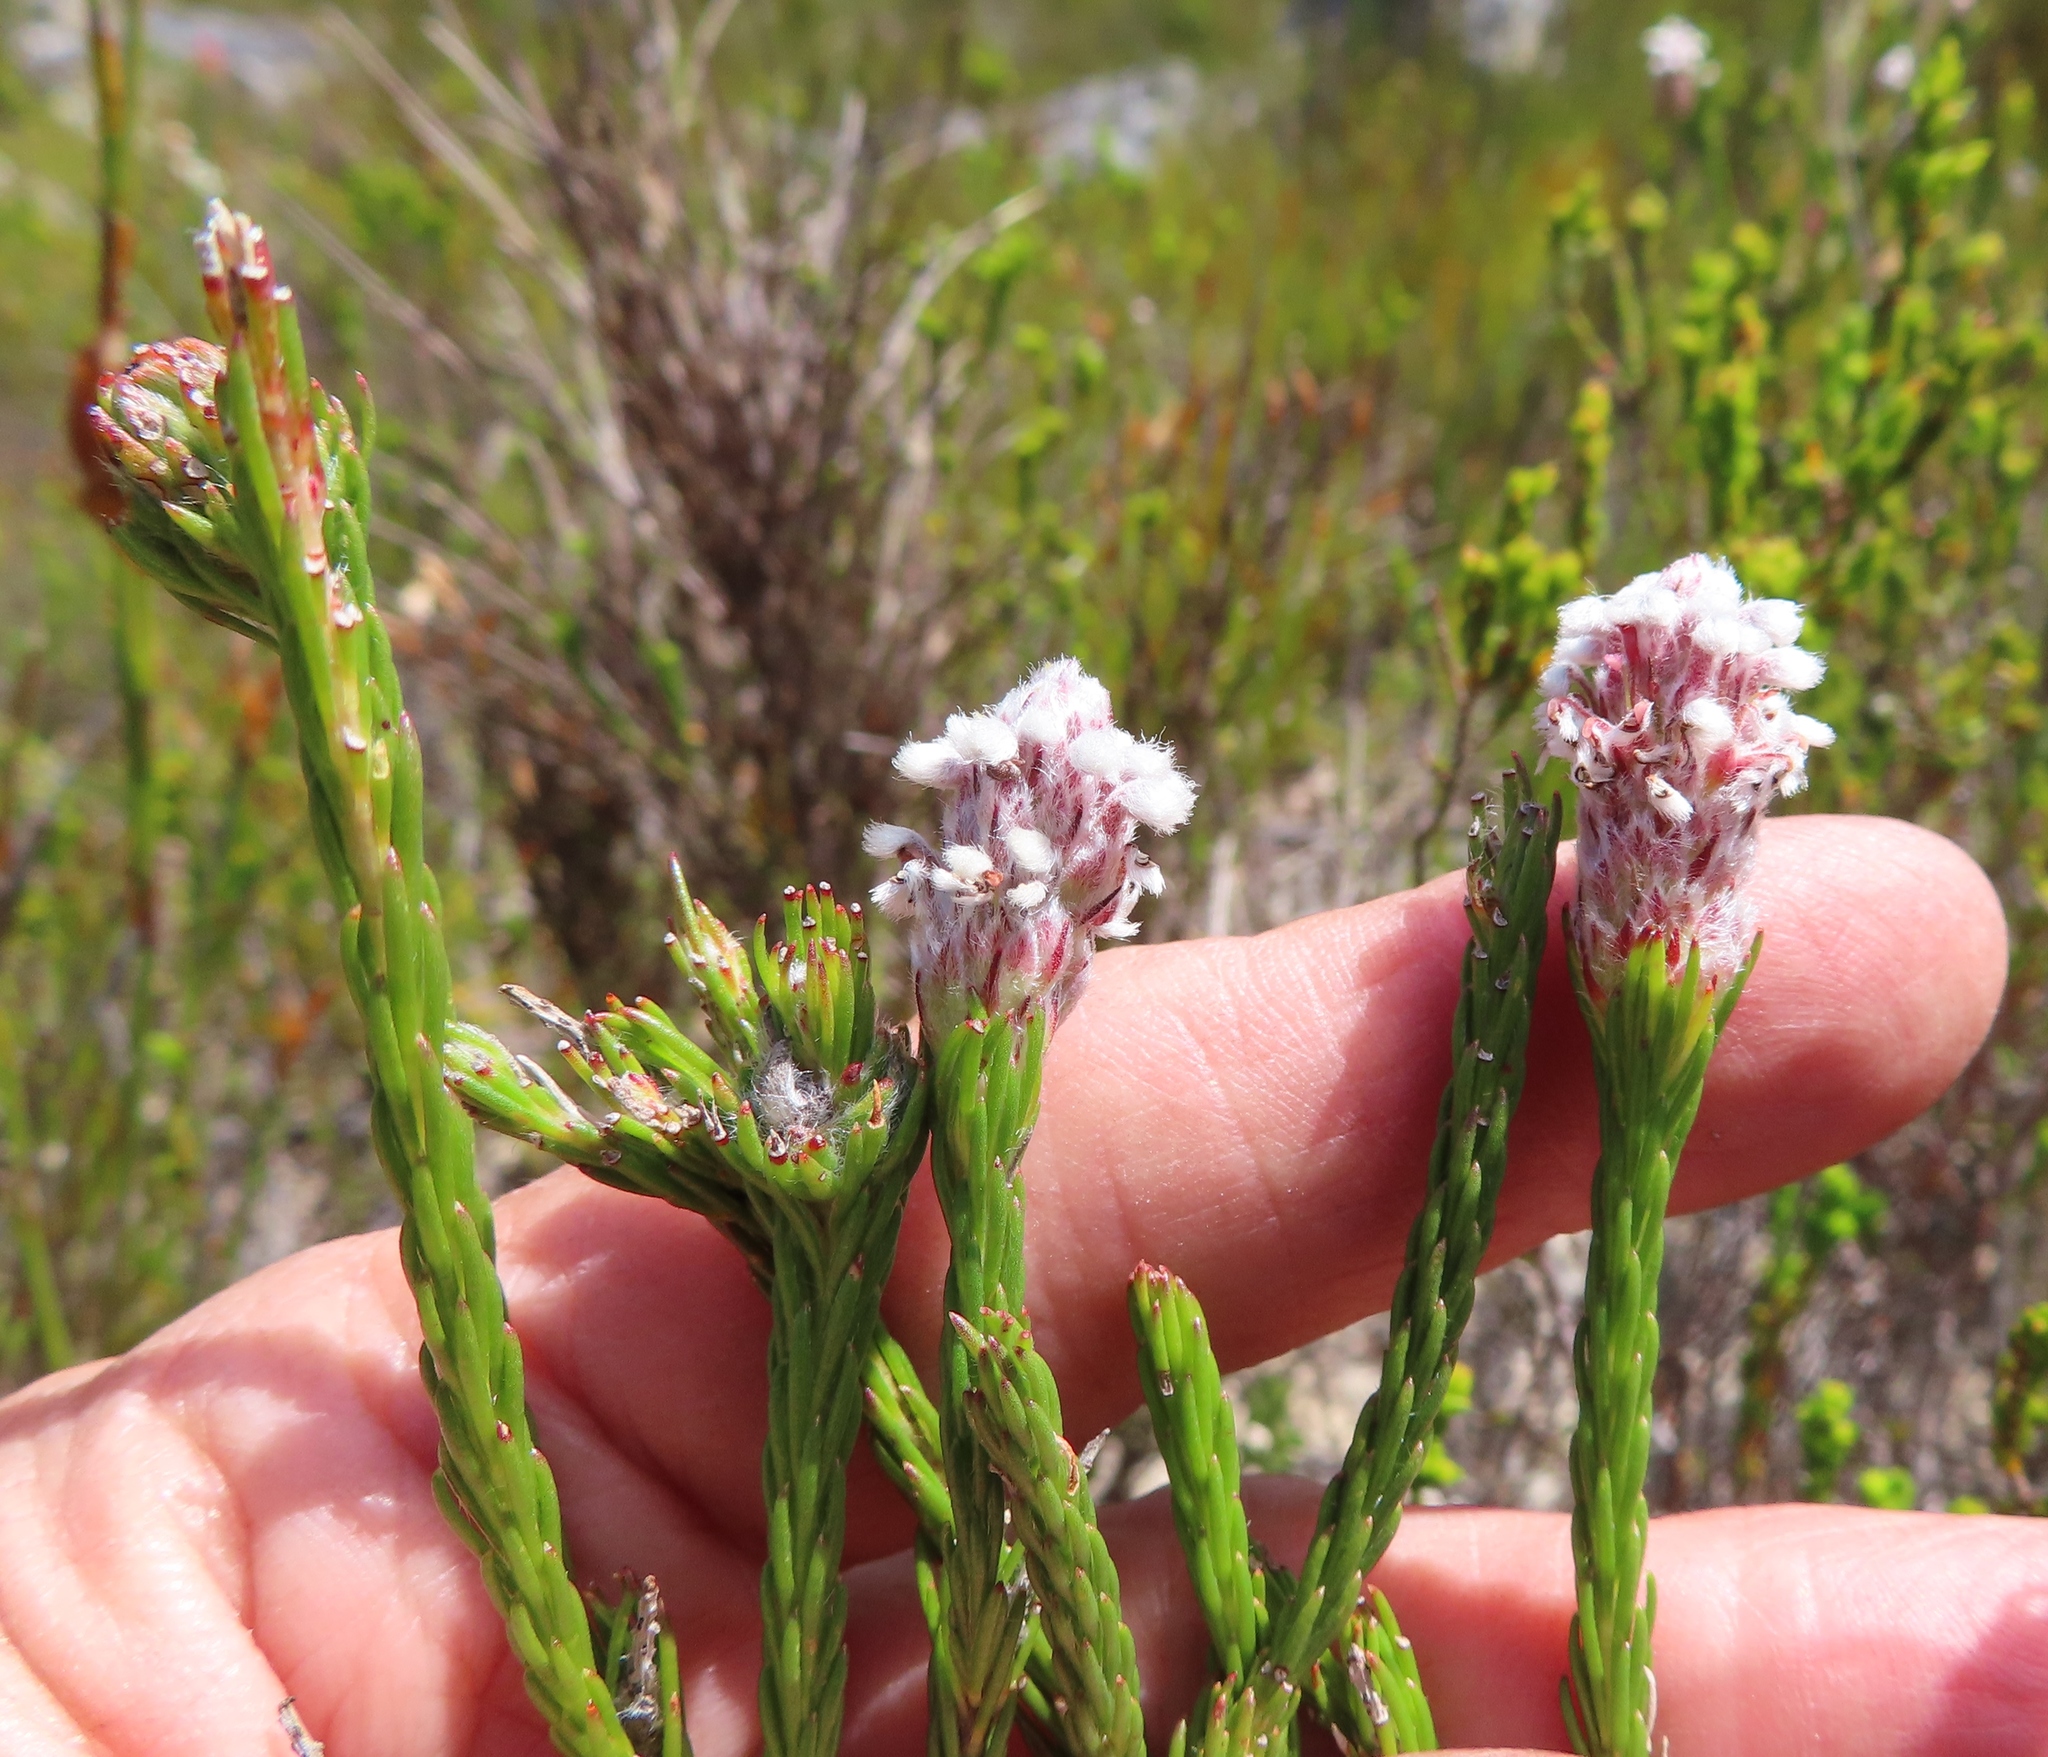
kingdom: Plantae
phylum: Tracheophyta
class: Magnoliopsida
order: Proteales
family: Proteaceae
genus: Spatalla
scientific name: Spatalla ericoides
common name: Erica-leaf spoon
